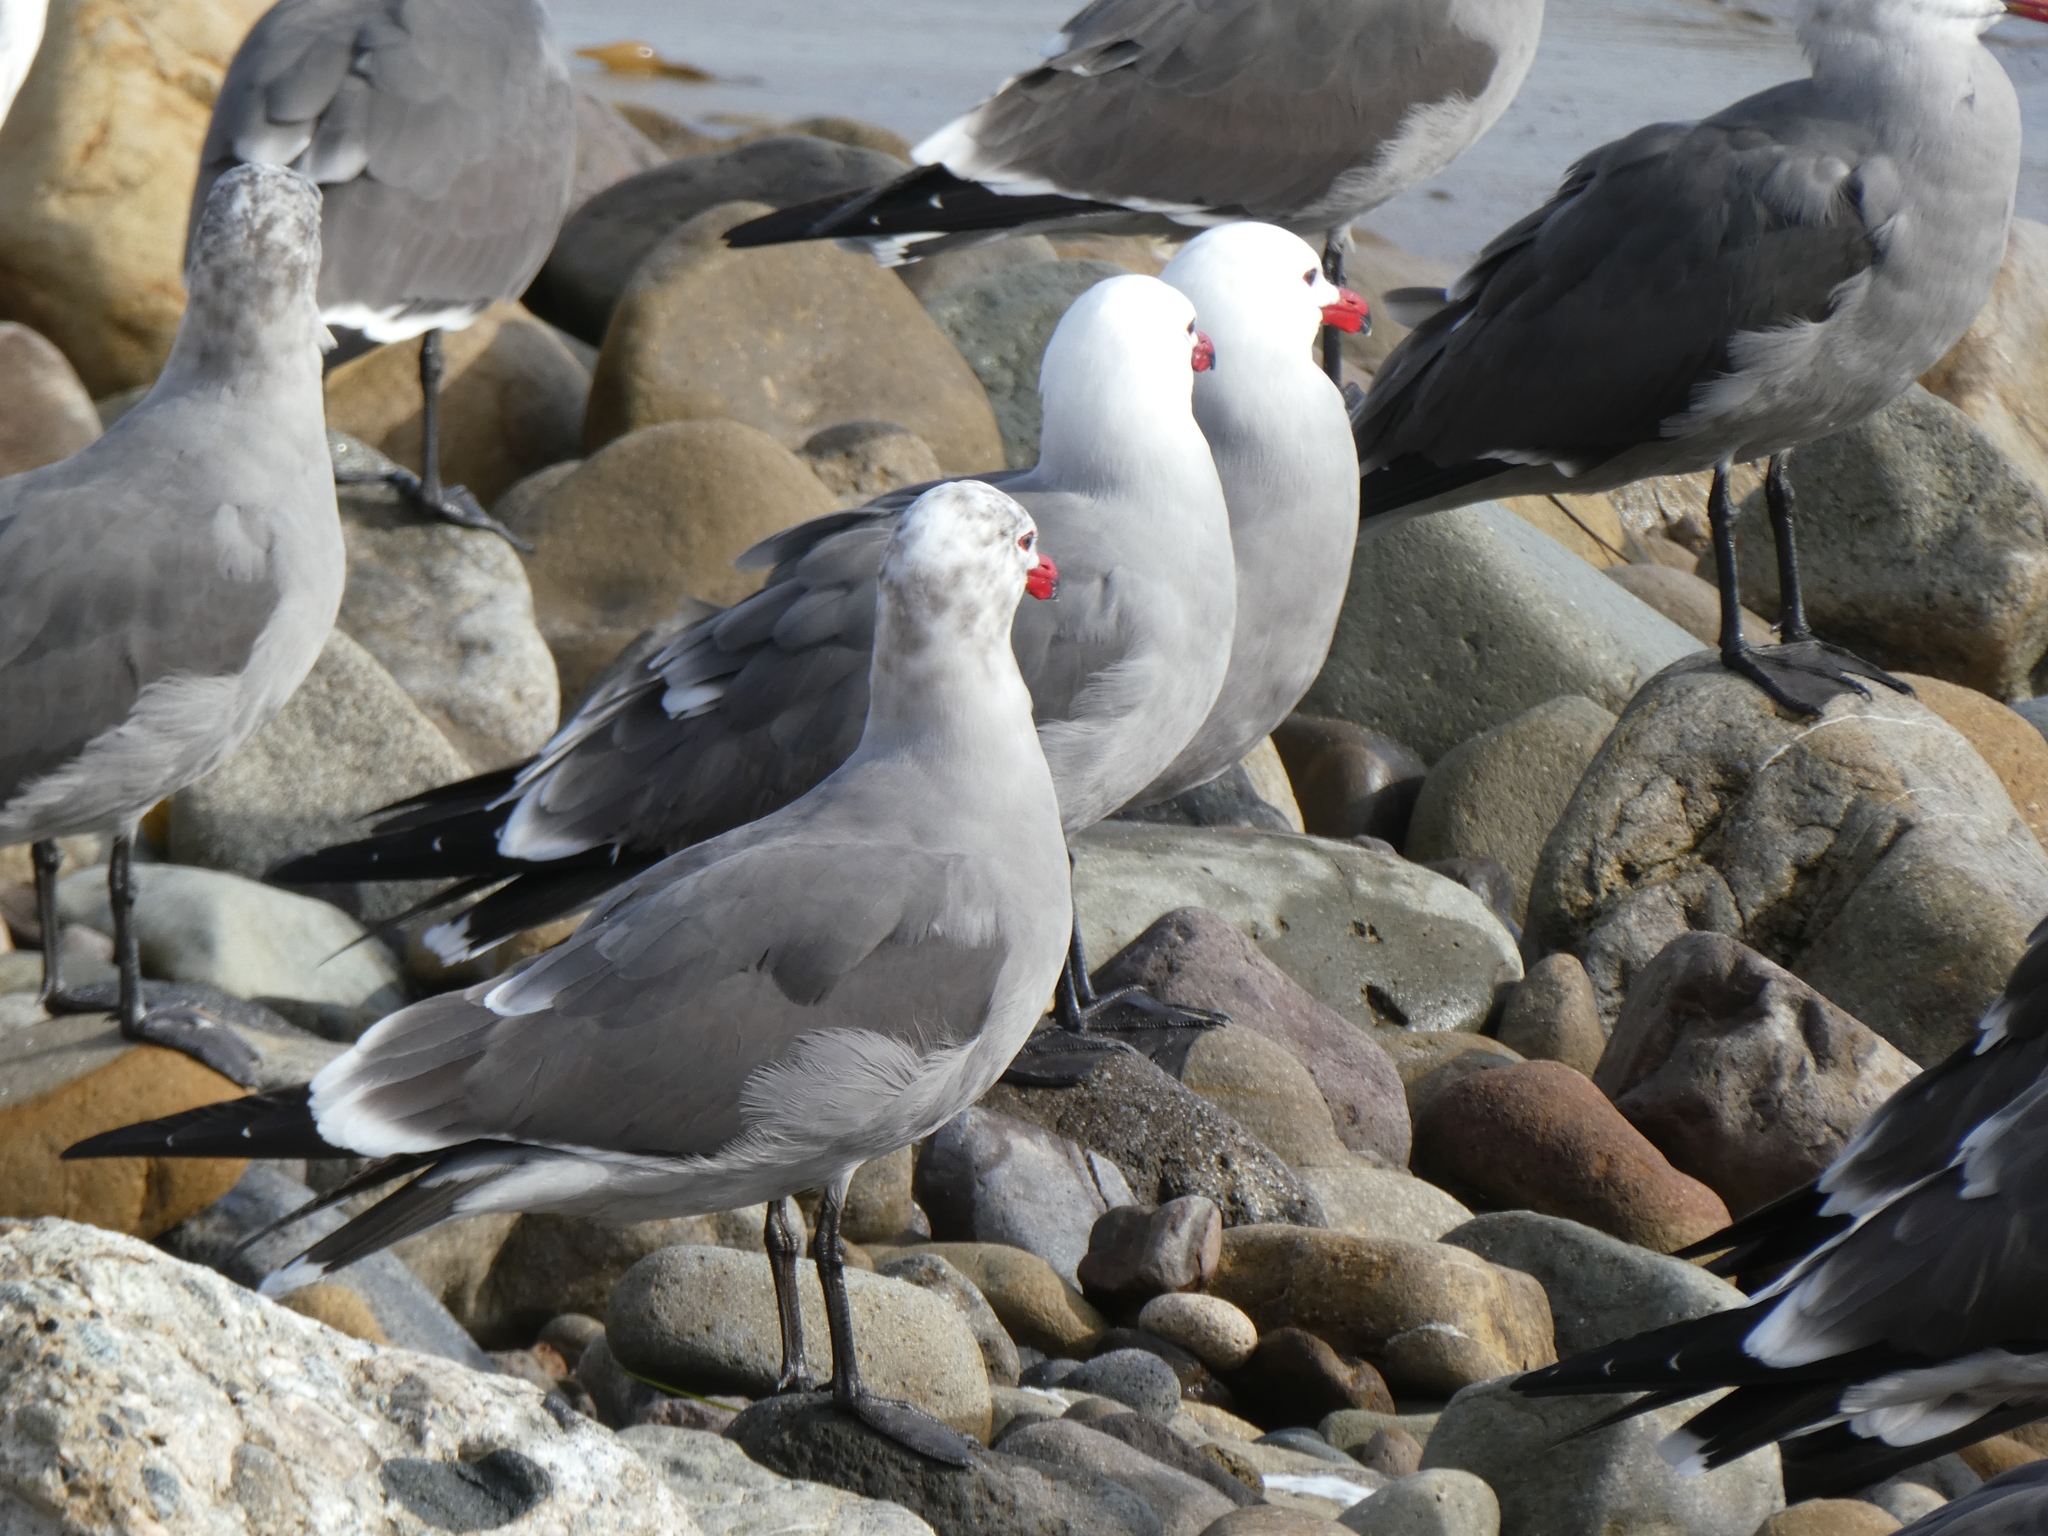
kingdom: Animalia
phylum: Chordata
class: Aves
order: Charadriiformes
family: Laridae
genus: Larus
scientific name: Larus heermanni
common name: Heermann's gull
